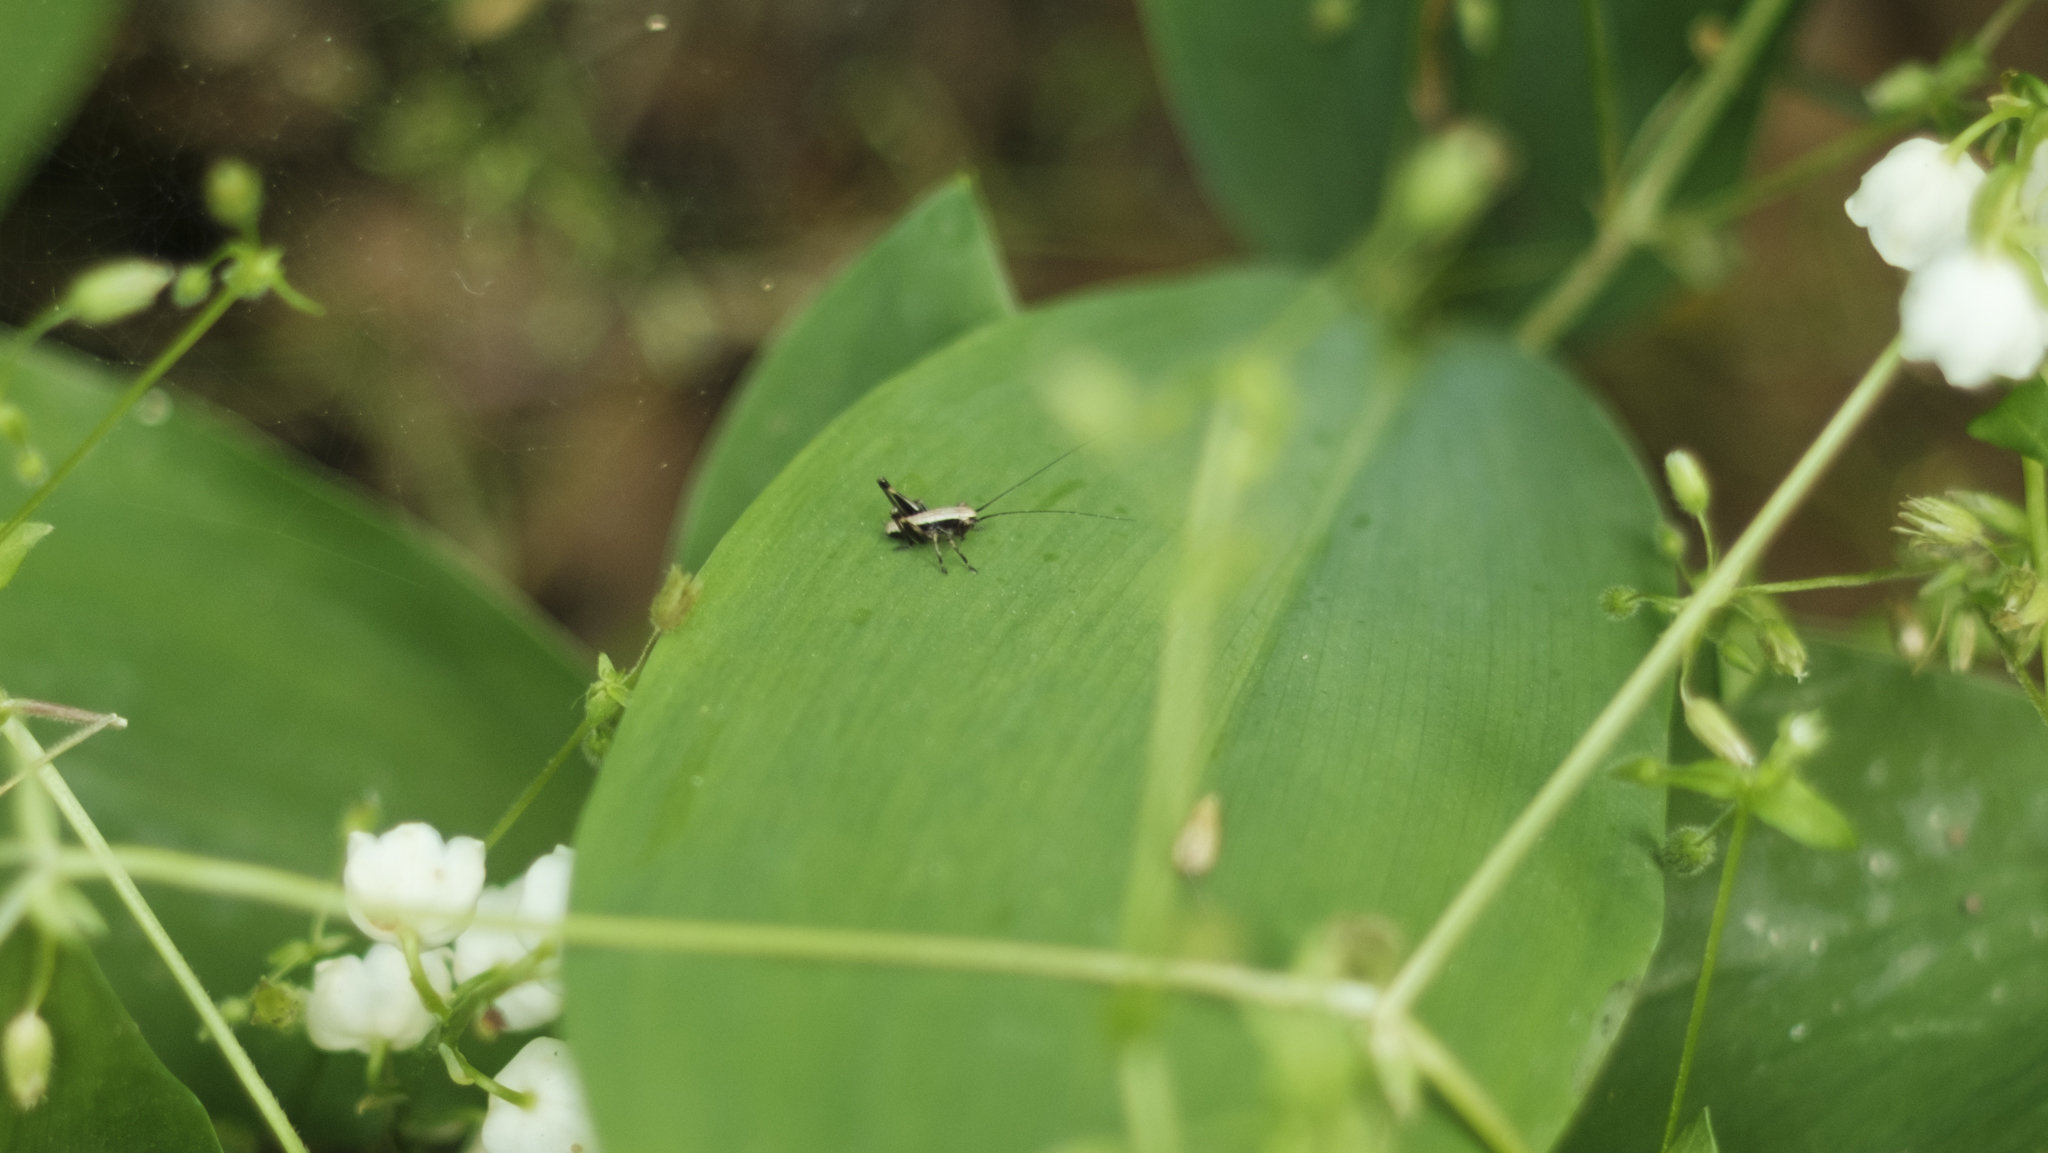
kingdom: Animalia
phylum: Arthropoda
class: Insecta
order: Orthoptera
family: Tettigoniidae
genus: Pholidoptera
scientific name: Pholidoptera griseoaptera
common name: Dark bush-cricket
